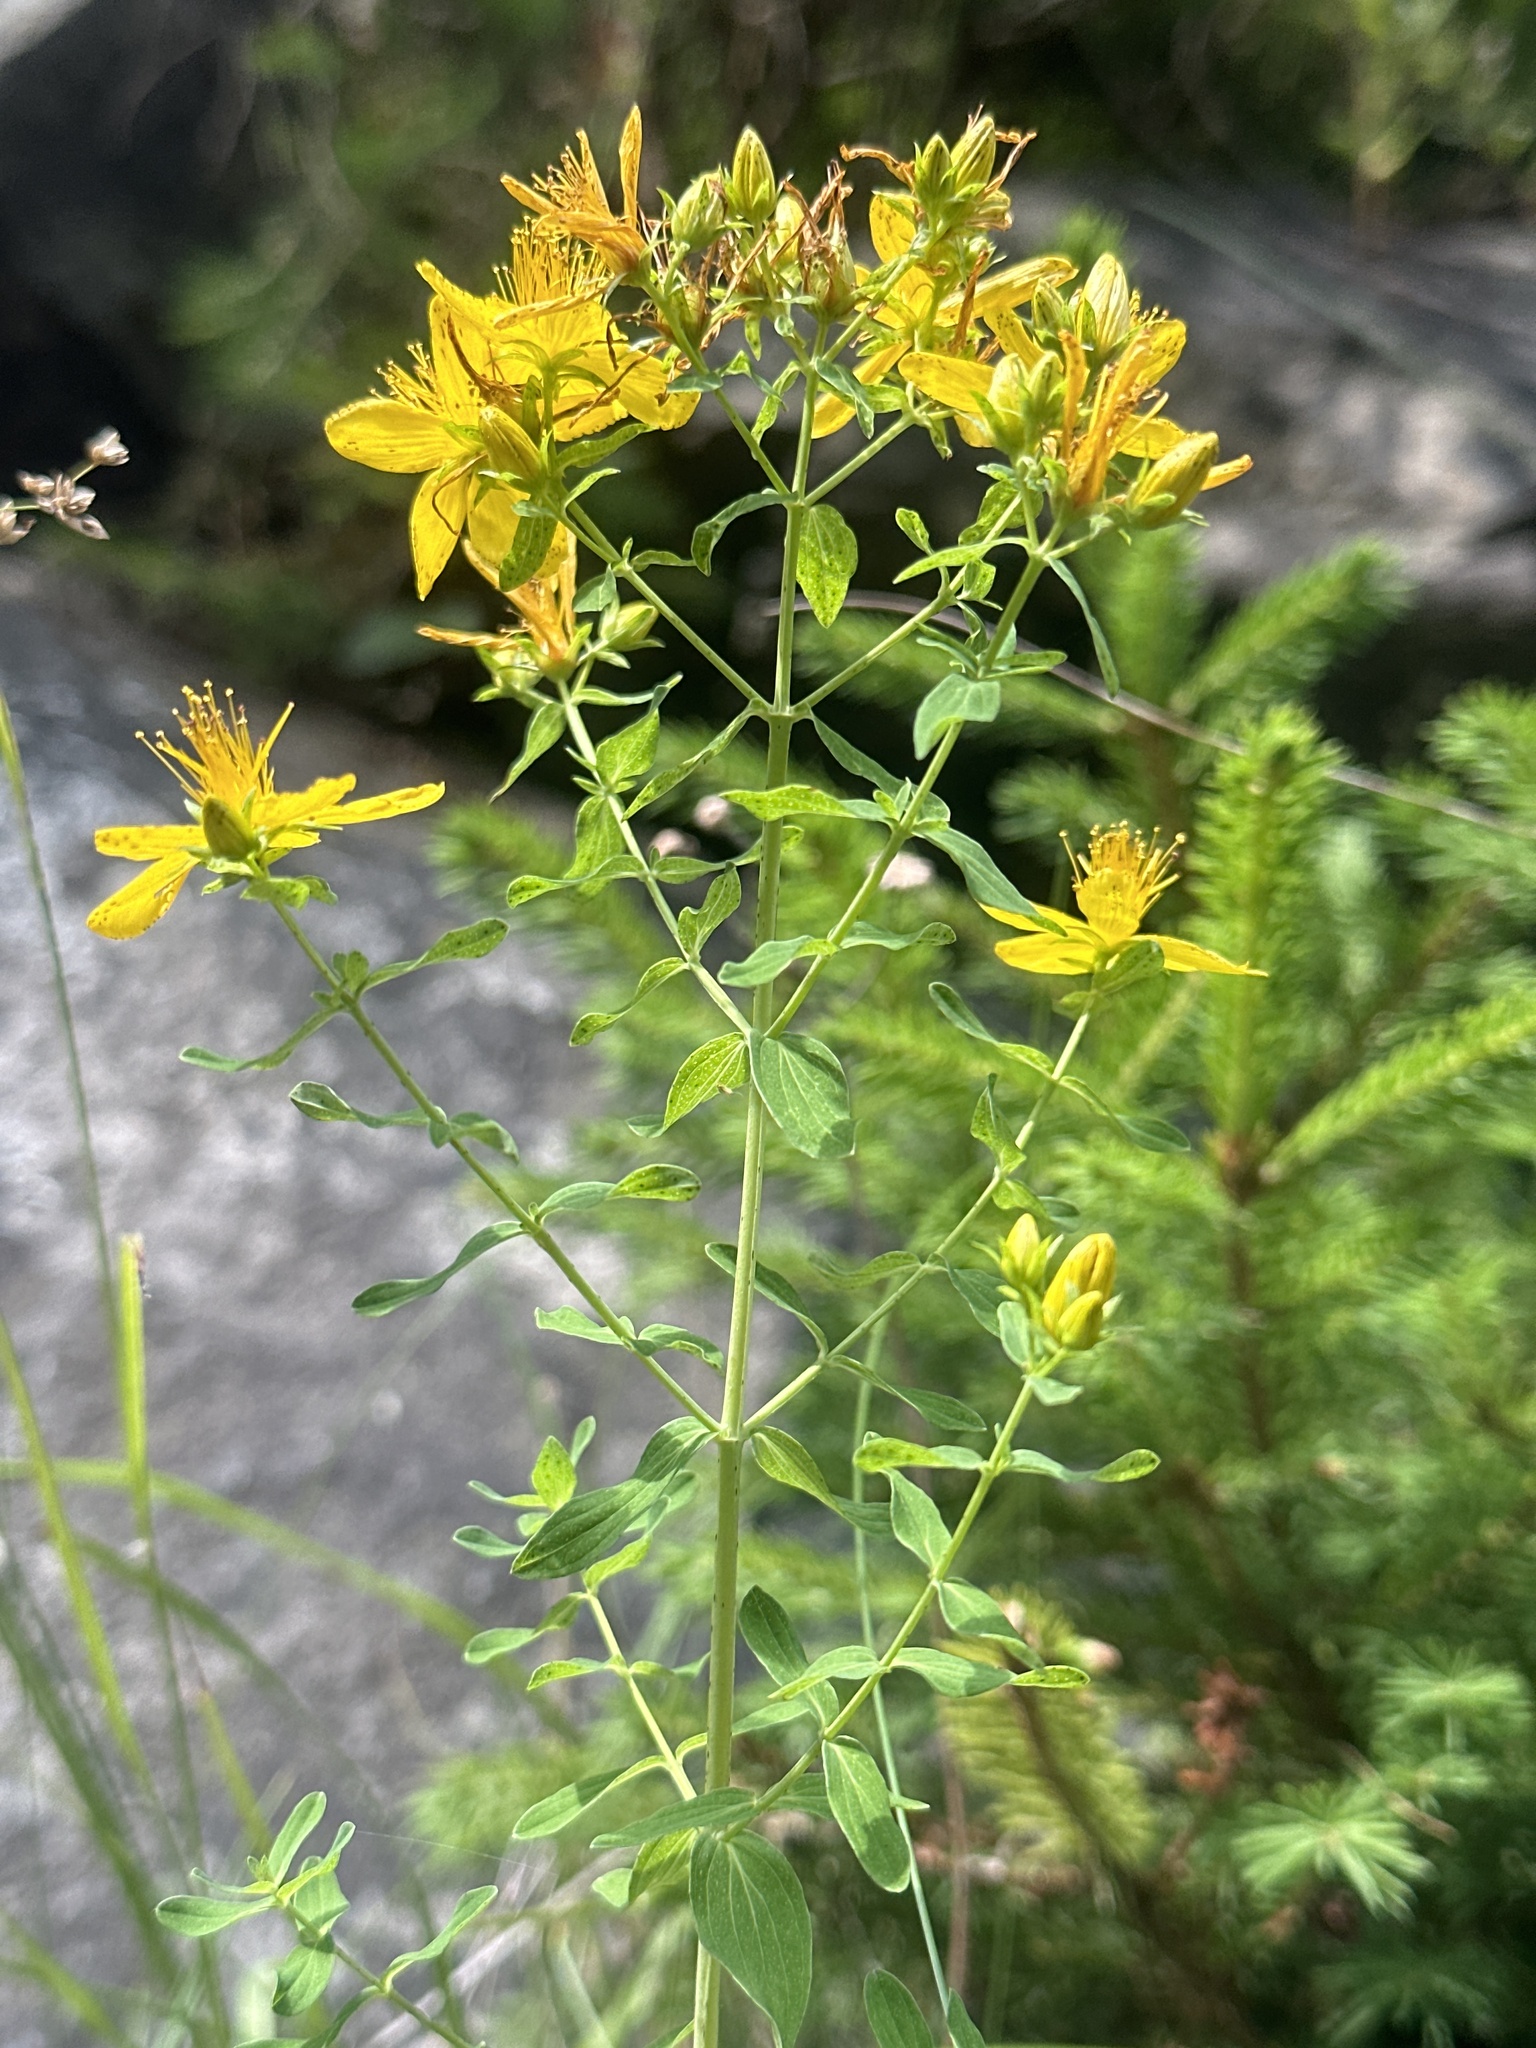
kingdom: Plantae
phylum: Tracheophyta
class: Magnoliopsida
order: Malpighiales
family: Hypericaceae
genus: Hypericum
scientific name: Hypericum perforatum
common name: Common st. johnswort
